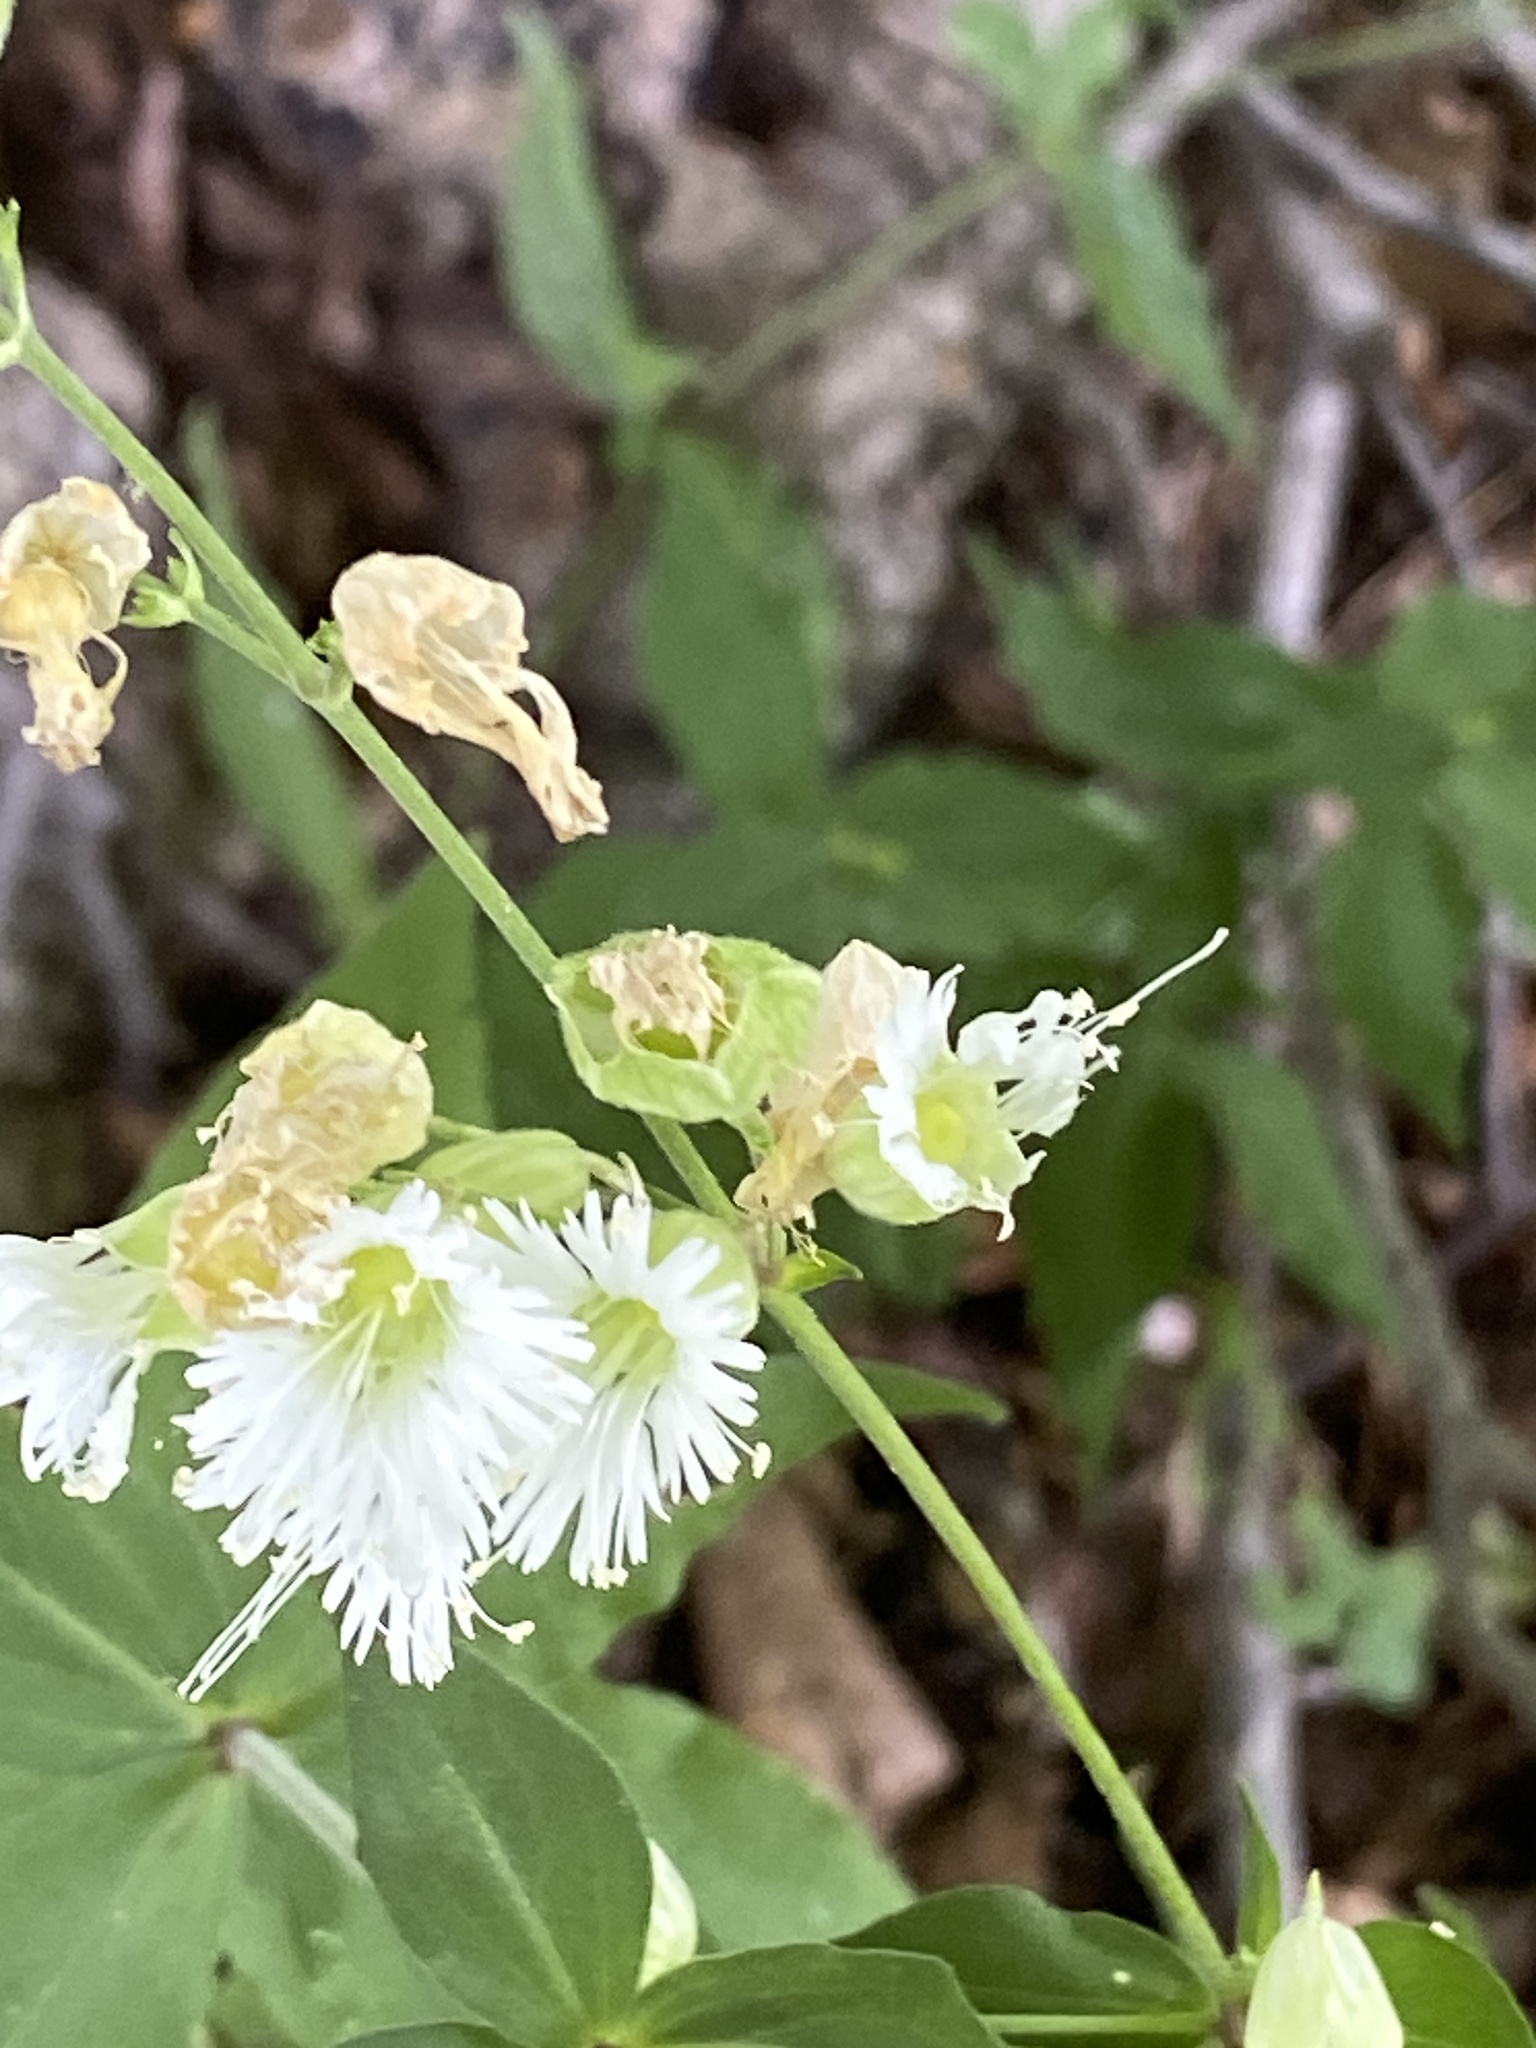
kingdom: Plantae
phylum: Tracheophyta
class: Magnoliopsida
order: Caryophyllales
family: Caryophyllaceae
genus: Silene
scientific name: Silene stellata
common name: Starry campion
